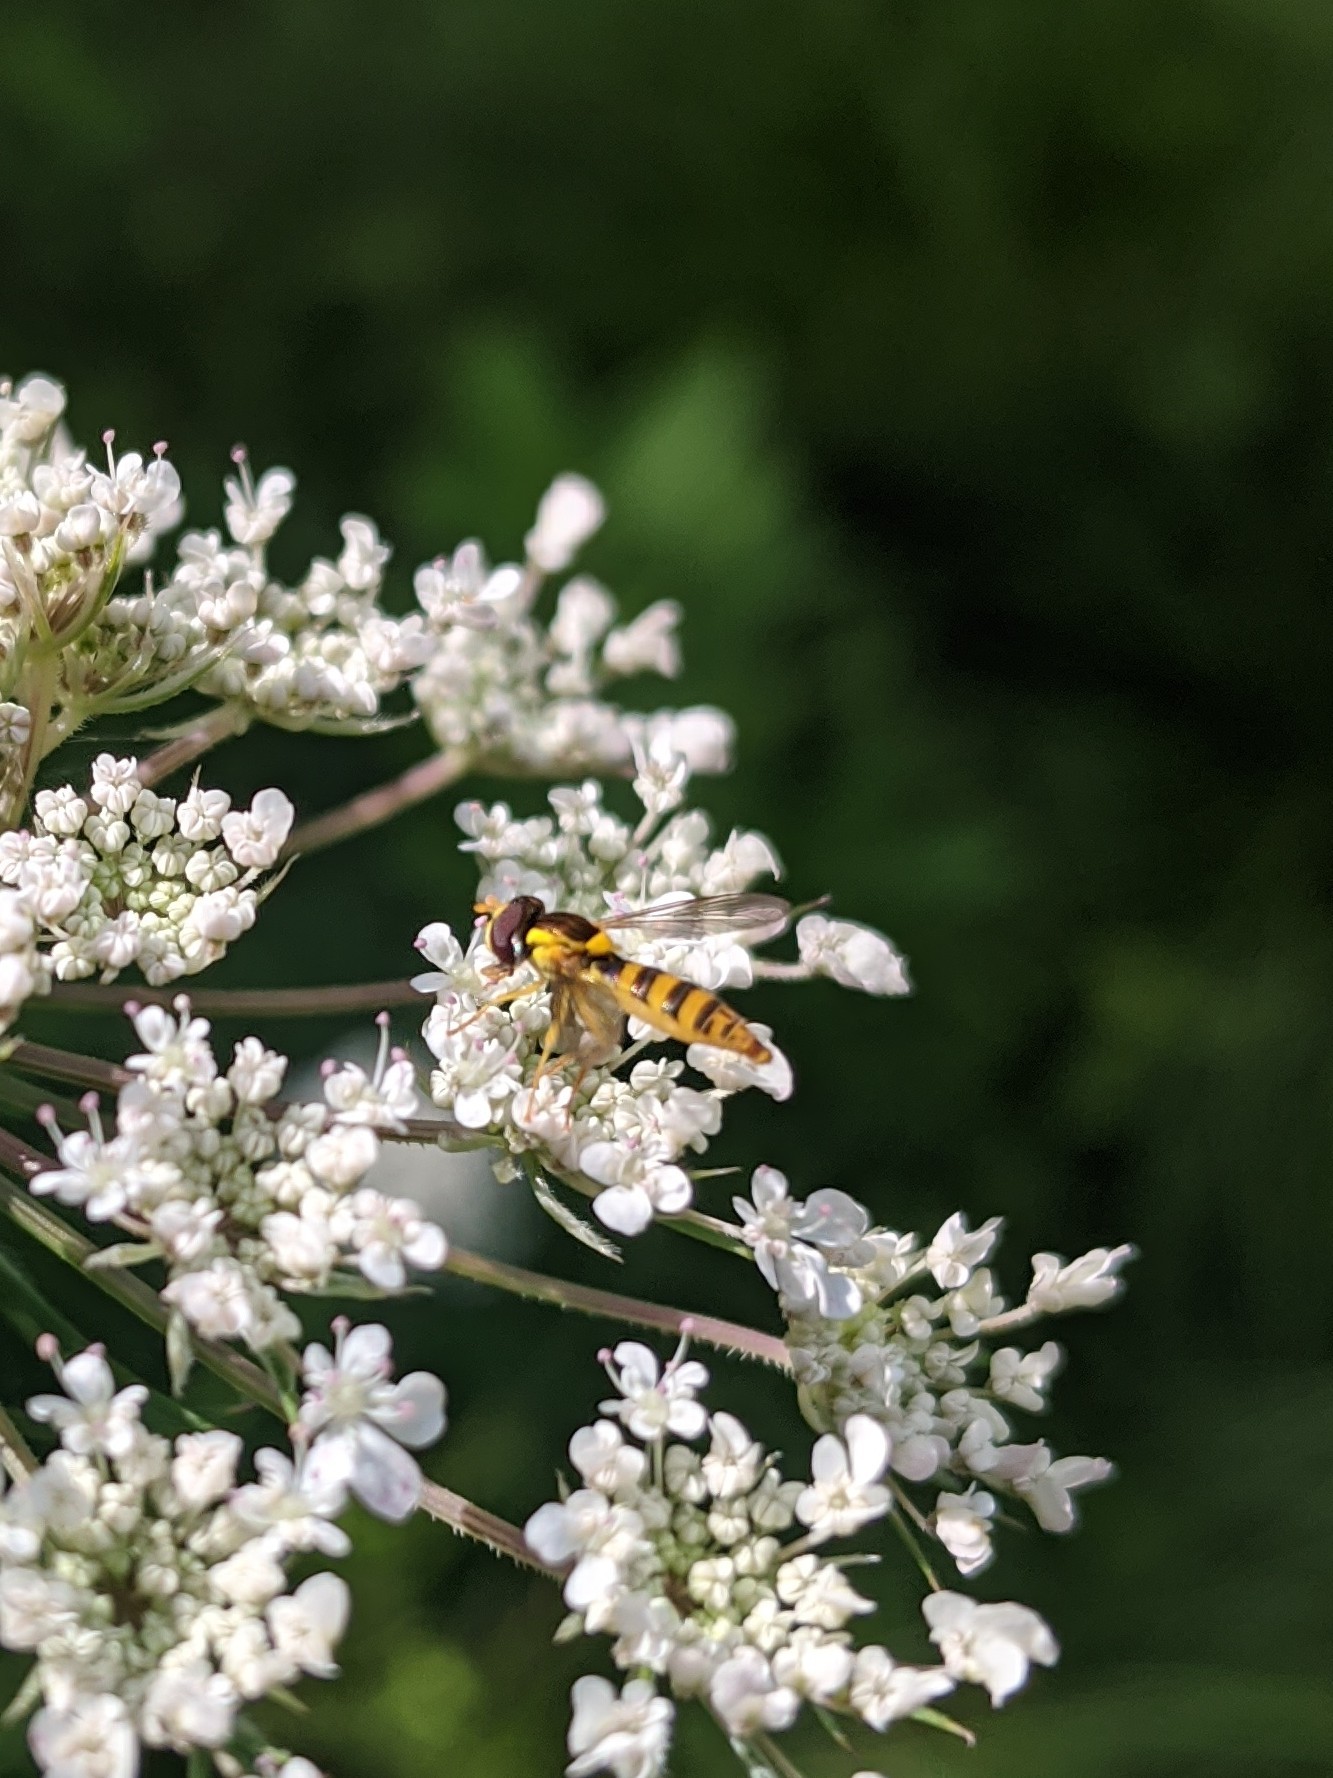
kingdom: Animalia
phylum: Arthropoda
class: Insecta
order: Diptera
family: Syrphidae
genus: Sphaerophoria
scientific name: Sphaerophoria
